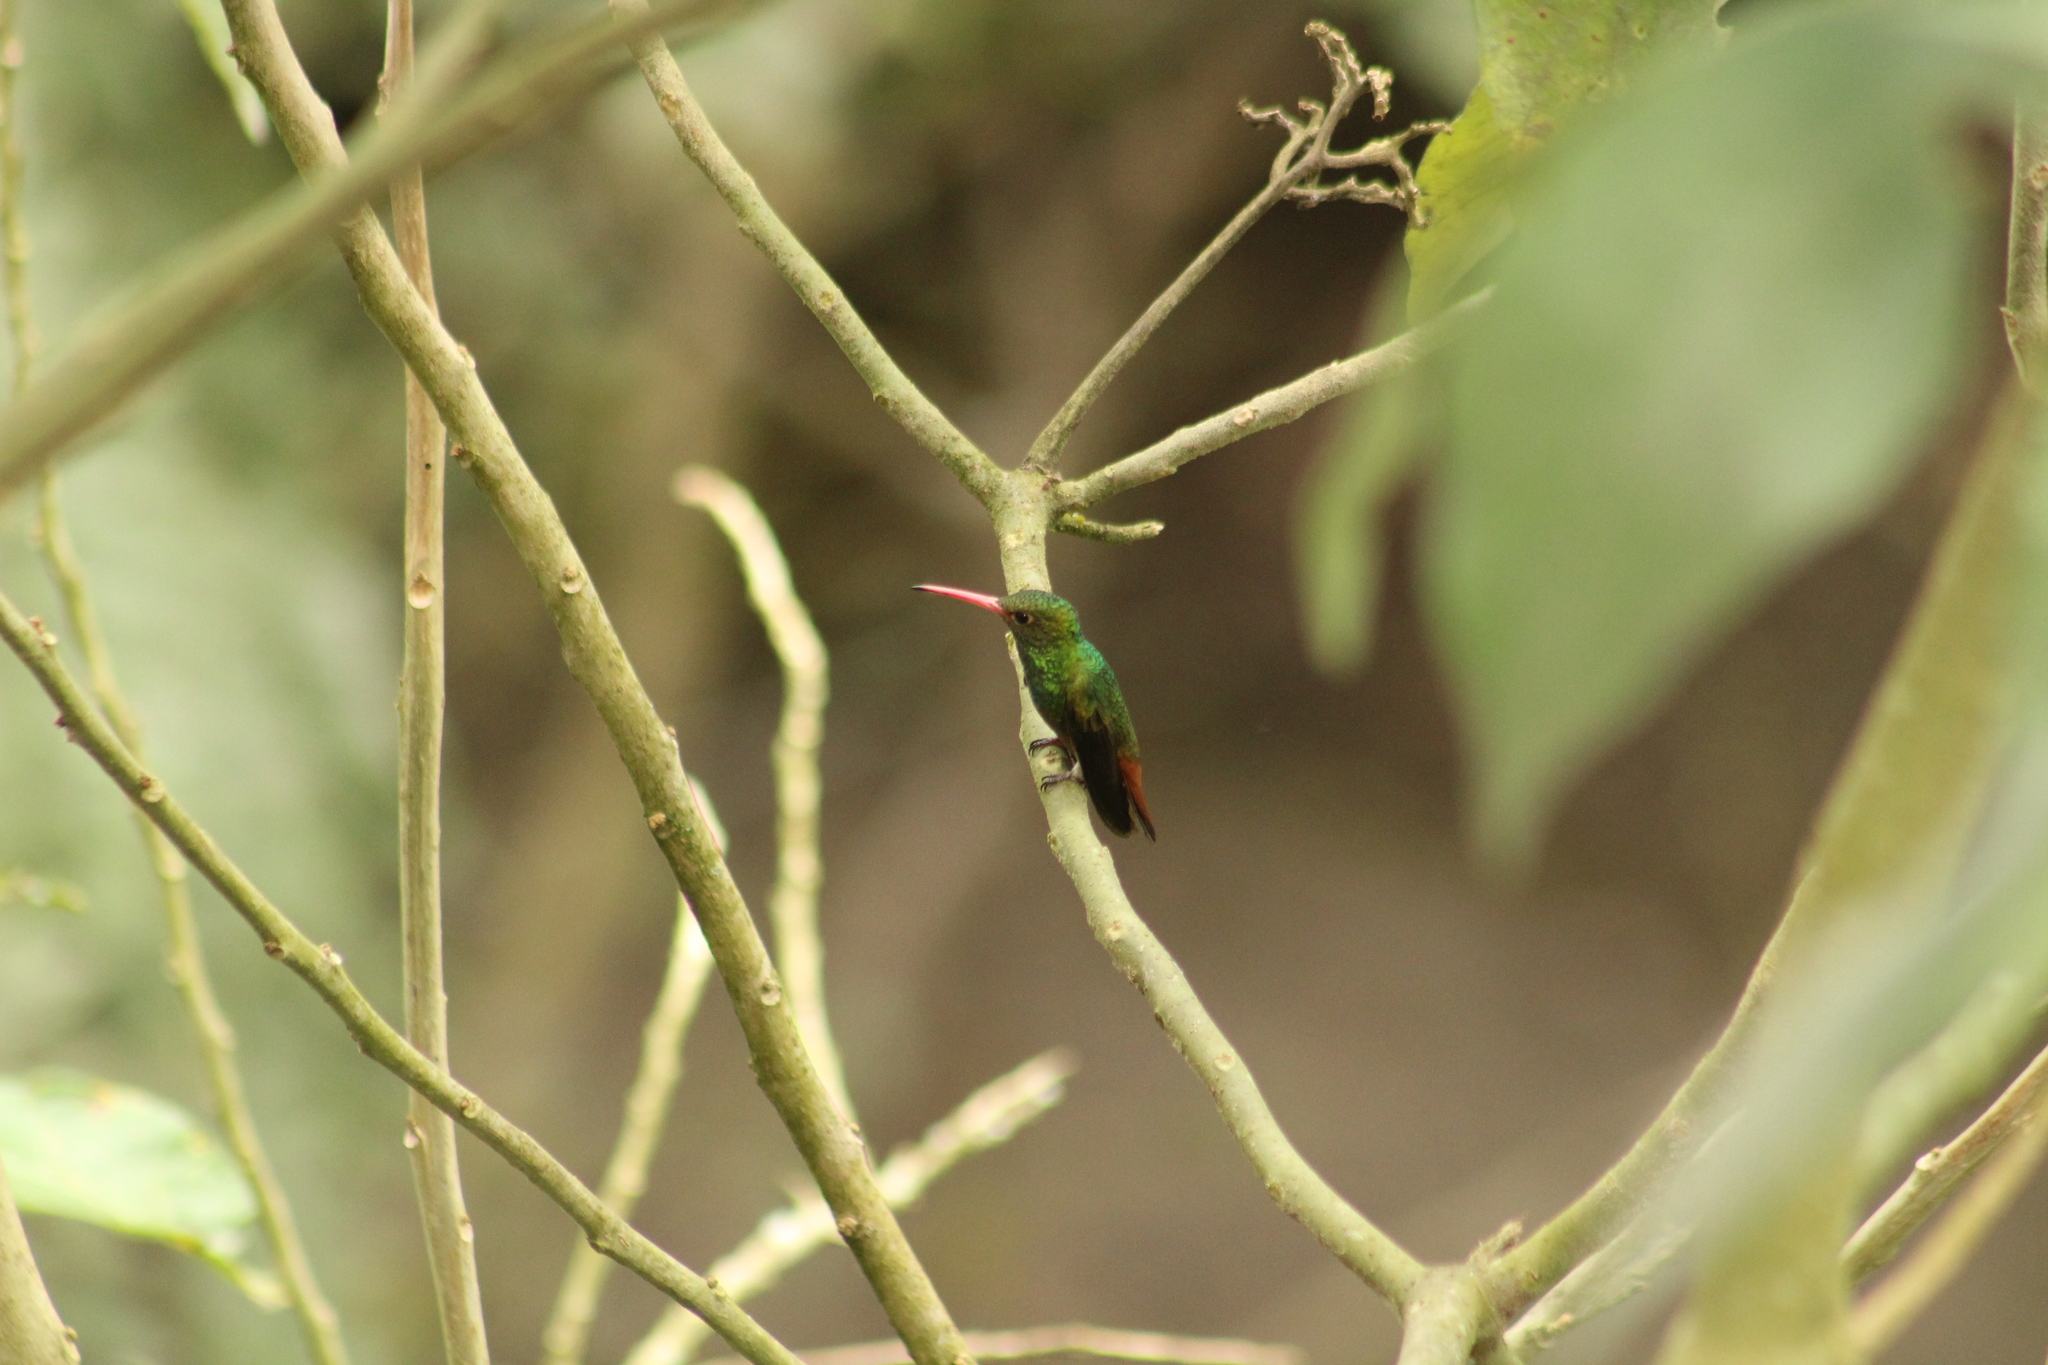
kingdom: Animalia
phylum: Chordata
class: Aves
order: Apodiformes
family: Trochilidae
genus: Amazilia
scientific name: Amazilia tzacatl
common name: Rufous-tailed hummingbird
